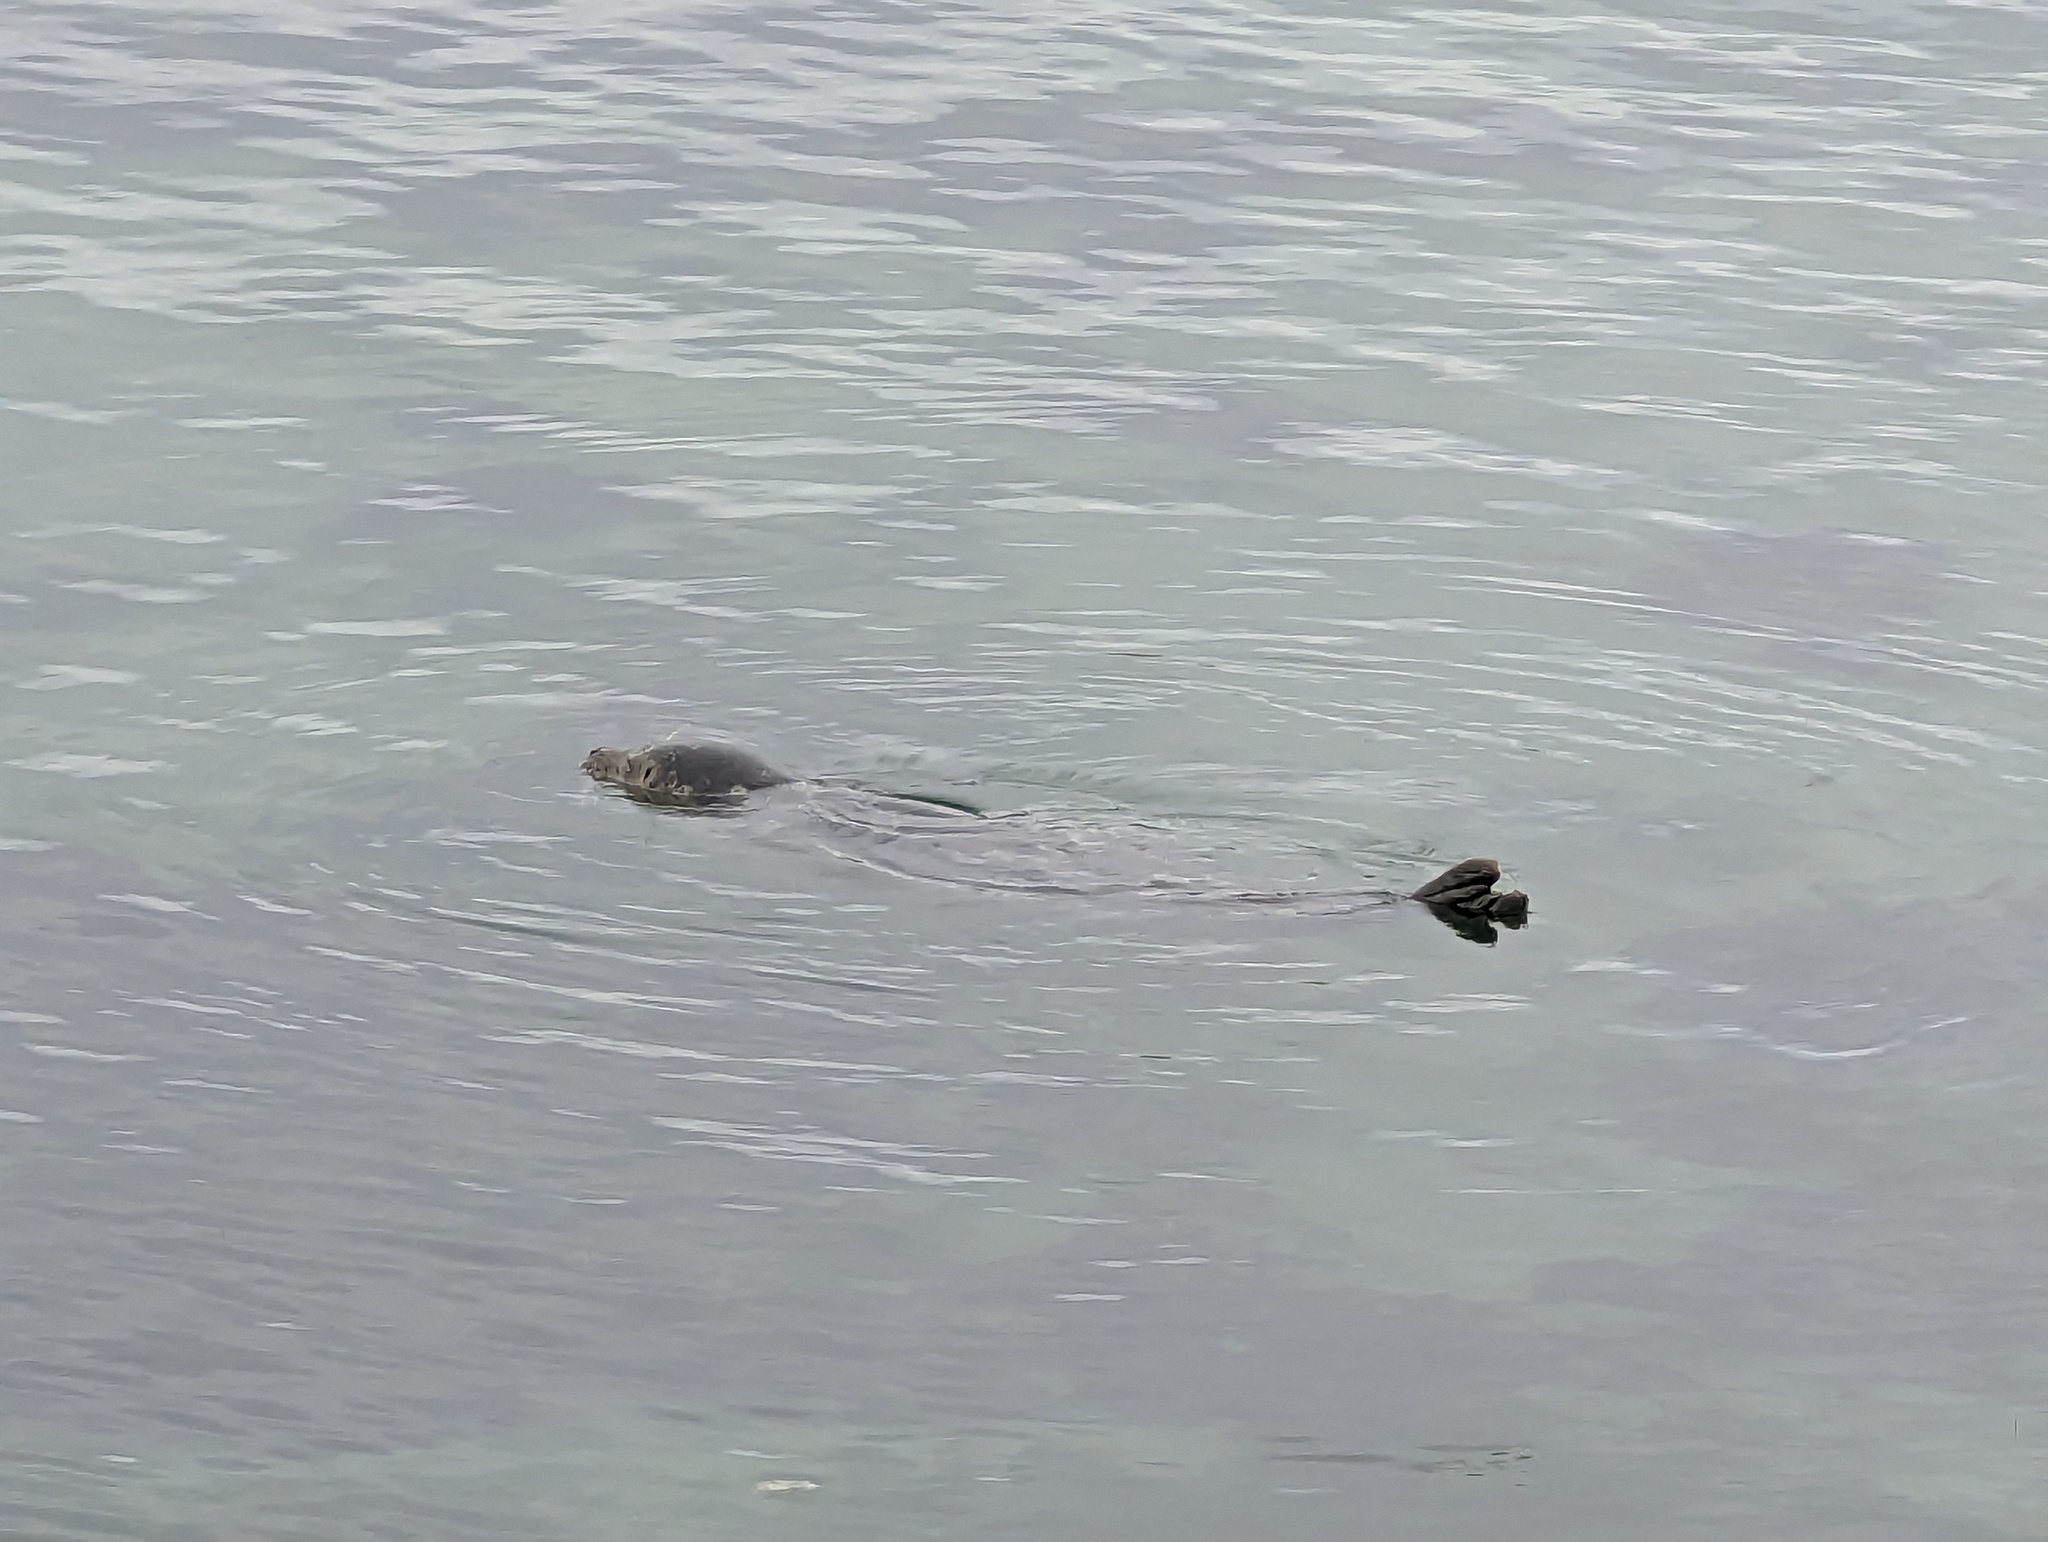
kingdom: Animalia
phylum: Chordata
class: Mammalia
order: Carnivora
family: Phocidae
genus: Phoca
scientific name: Phoca vitulina
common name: Harbor seal
